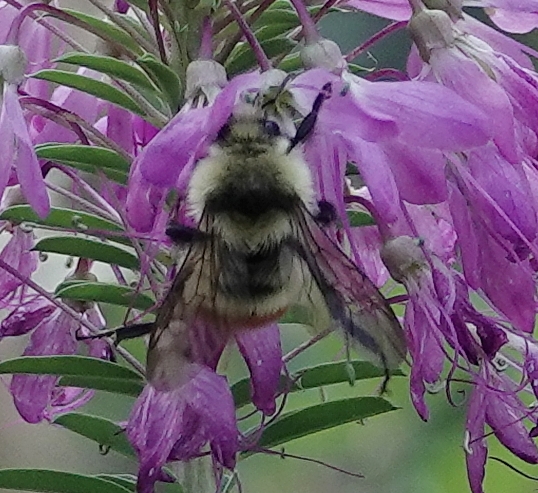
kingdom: Animalia
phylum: Arthropoda
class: Insecta
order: Hymenoptera
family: Apidae
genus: Bombus
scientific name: Bombus centralis
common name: Central bumble bee
